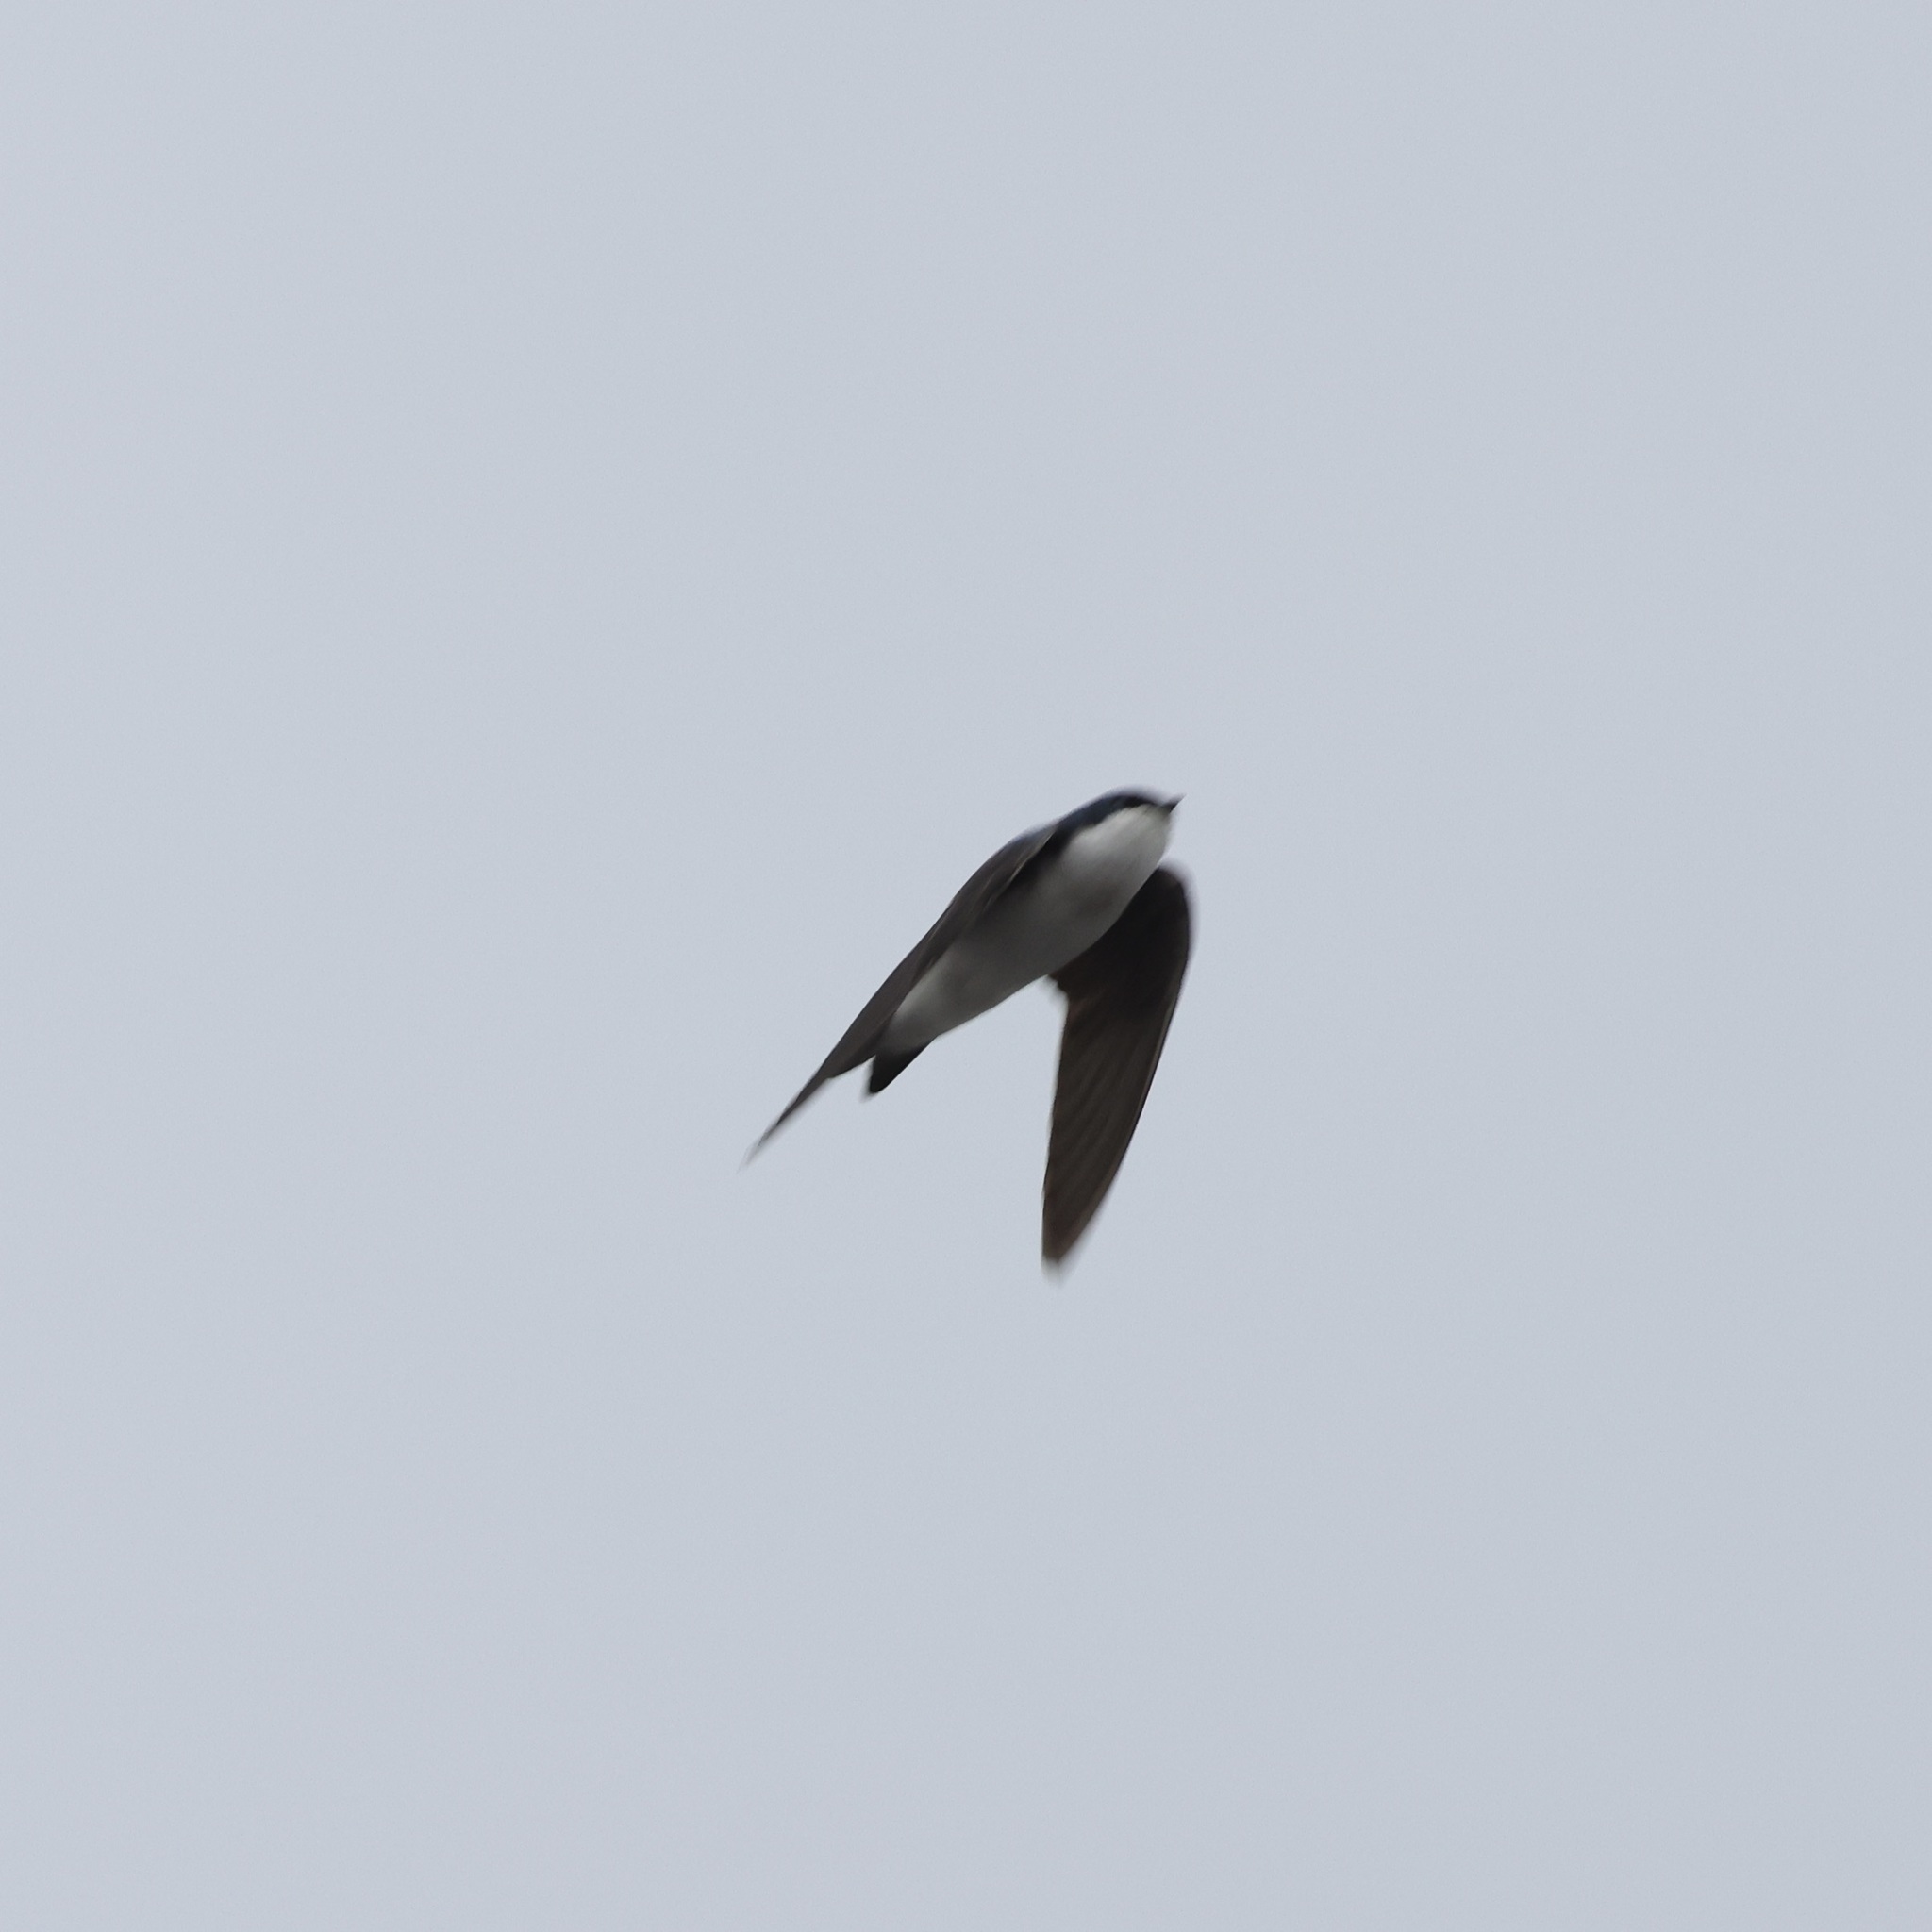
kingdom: Animalia
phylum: Chordata
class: Aves
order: Passeriformes
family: Hirundinidae
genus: Tachycineta
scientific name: Tachycineta bicolor
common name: Tree swallow
